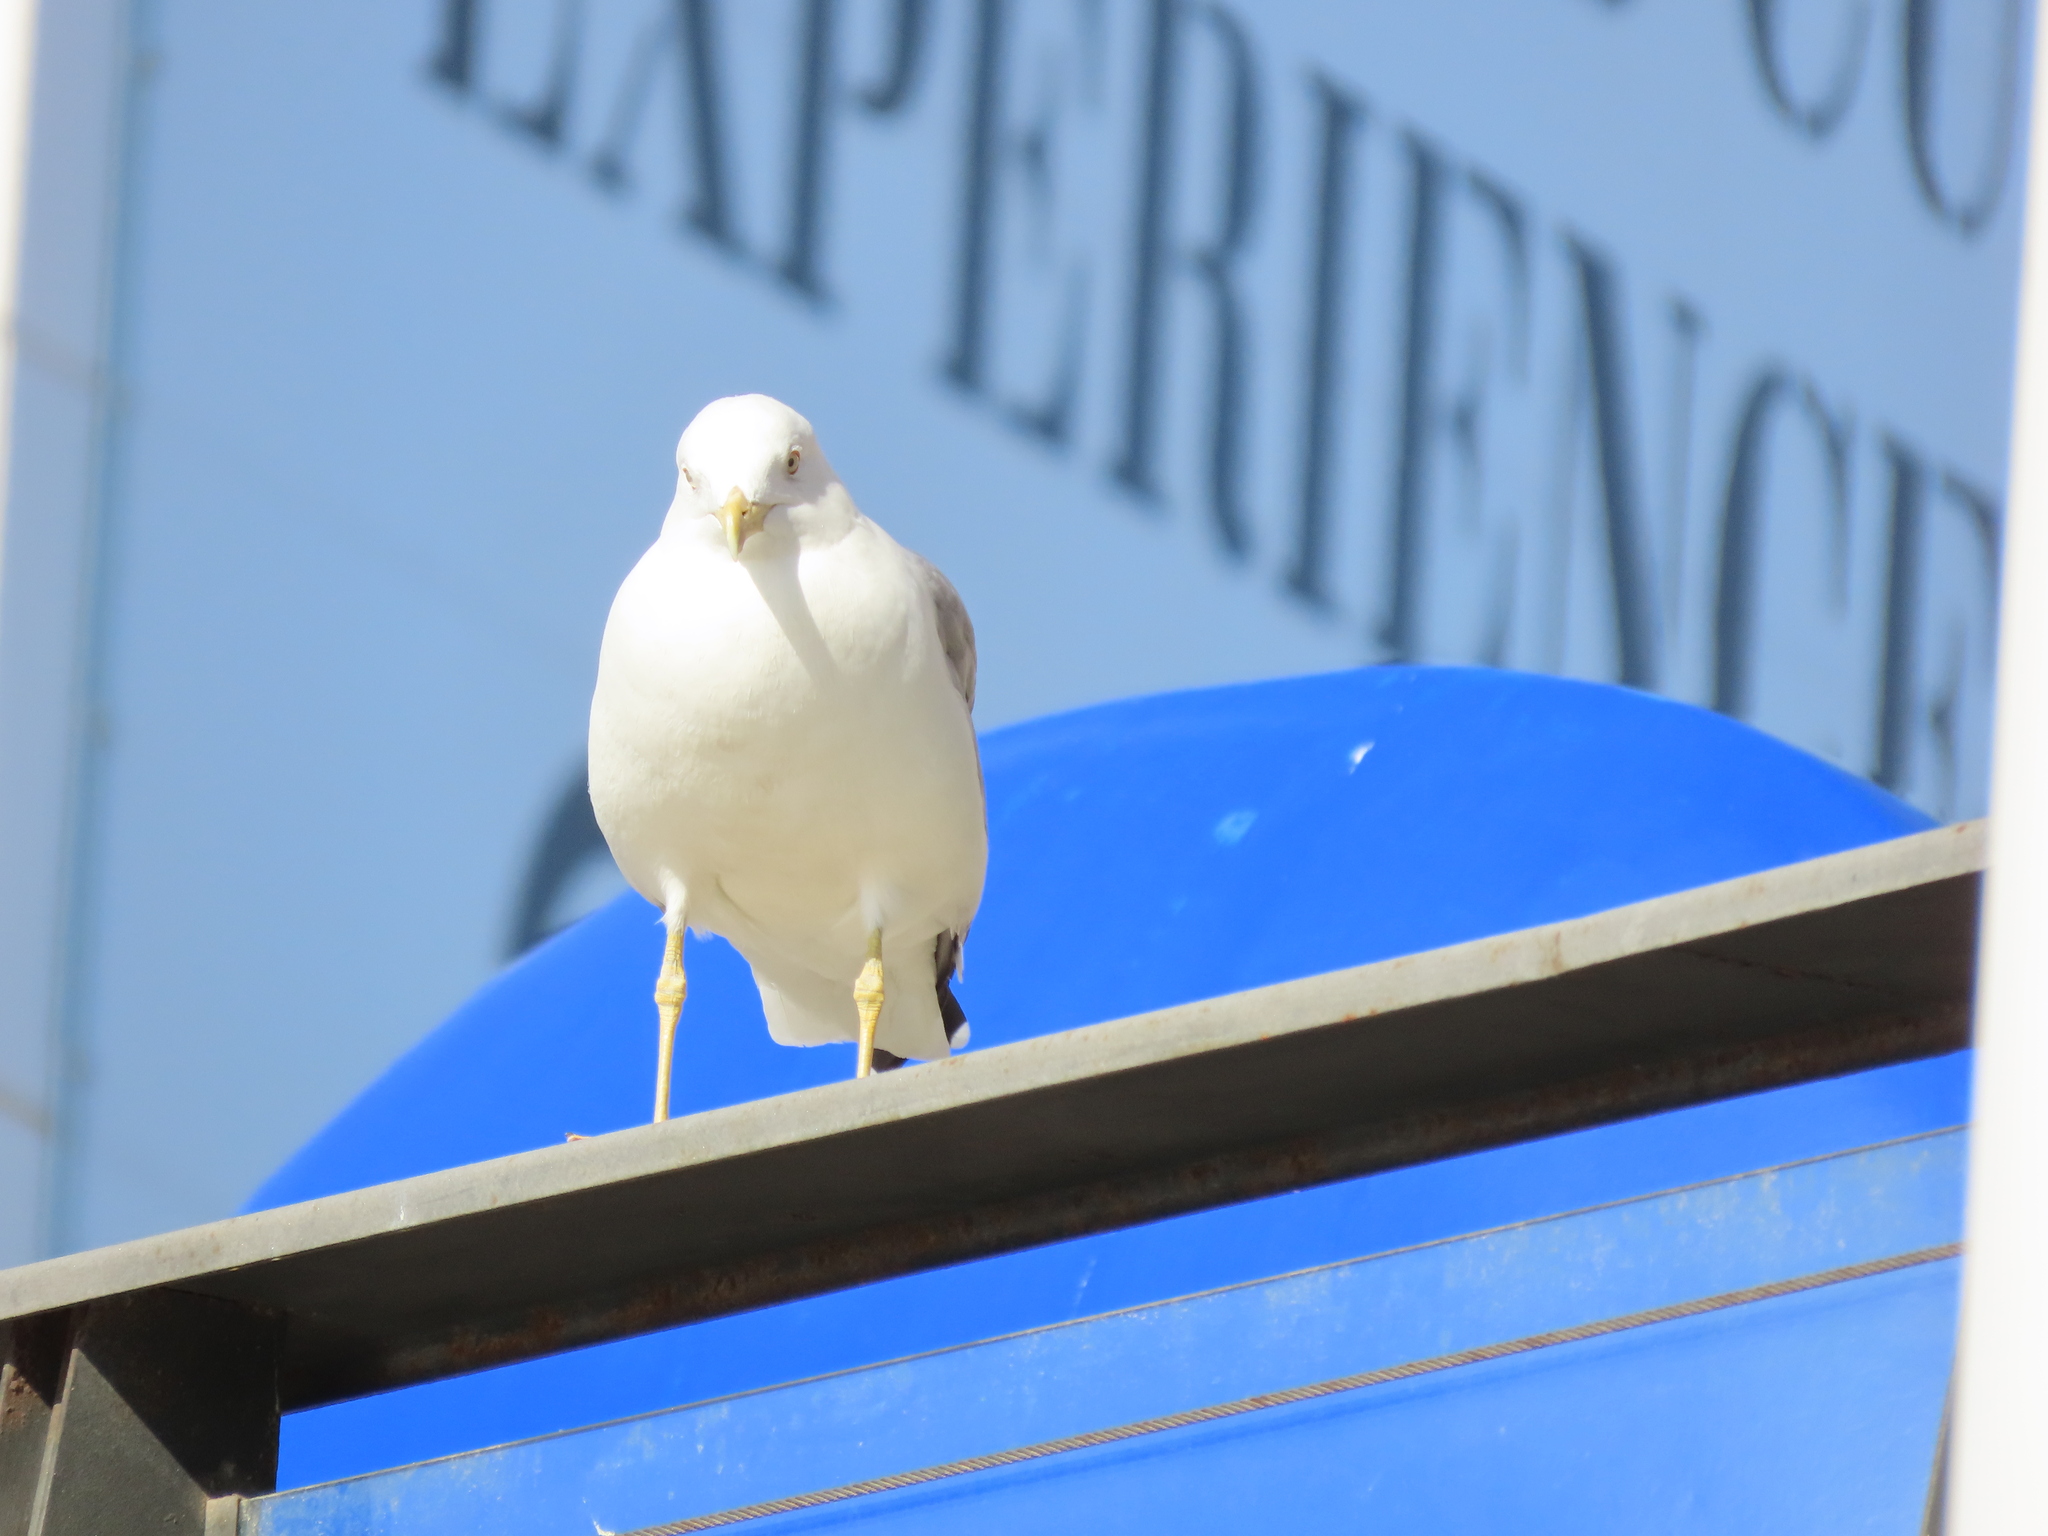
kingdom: Animalia
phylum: Chordata
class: Aves
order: Charadriiformes
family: Laridae
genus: Larus
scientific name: Larus michahellis
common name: Yellow-legged gull
